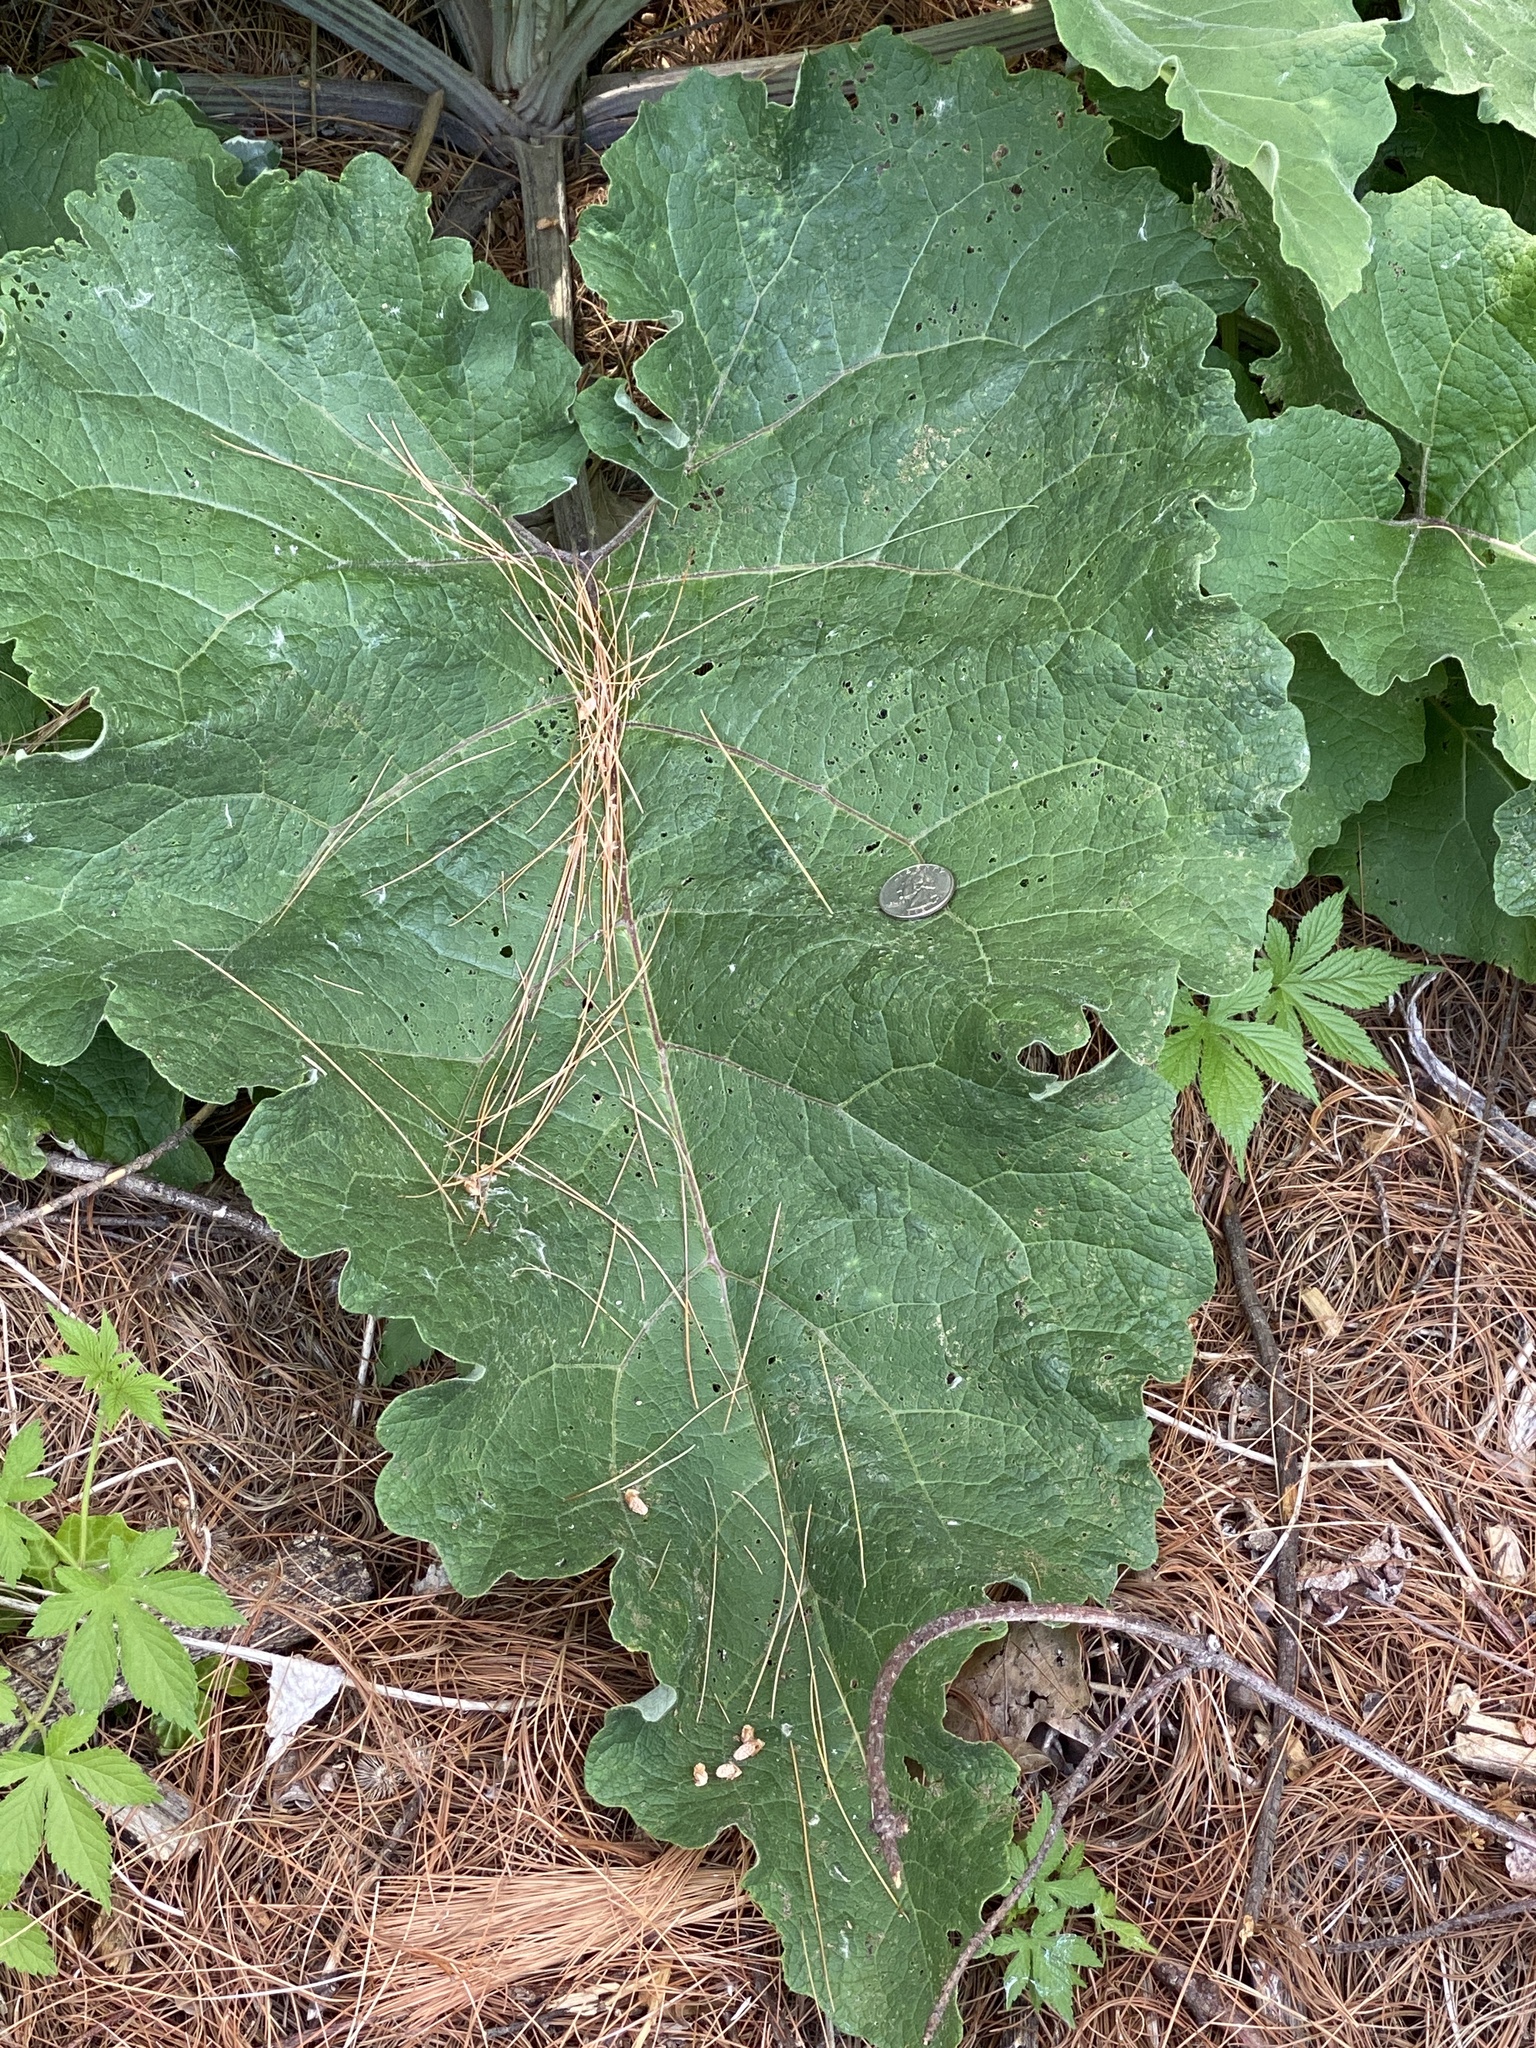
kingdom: Plantae
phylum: Tracheophyta
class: Magnoliopsida
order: Asterales
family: Asteraceae
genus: Arctium
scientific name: Arctium minus
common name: Lesser burdock
